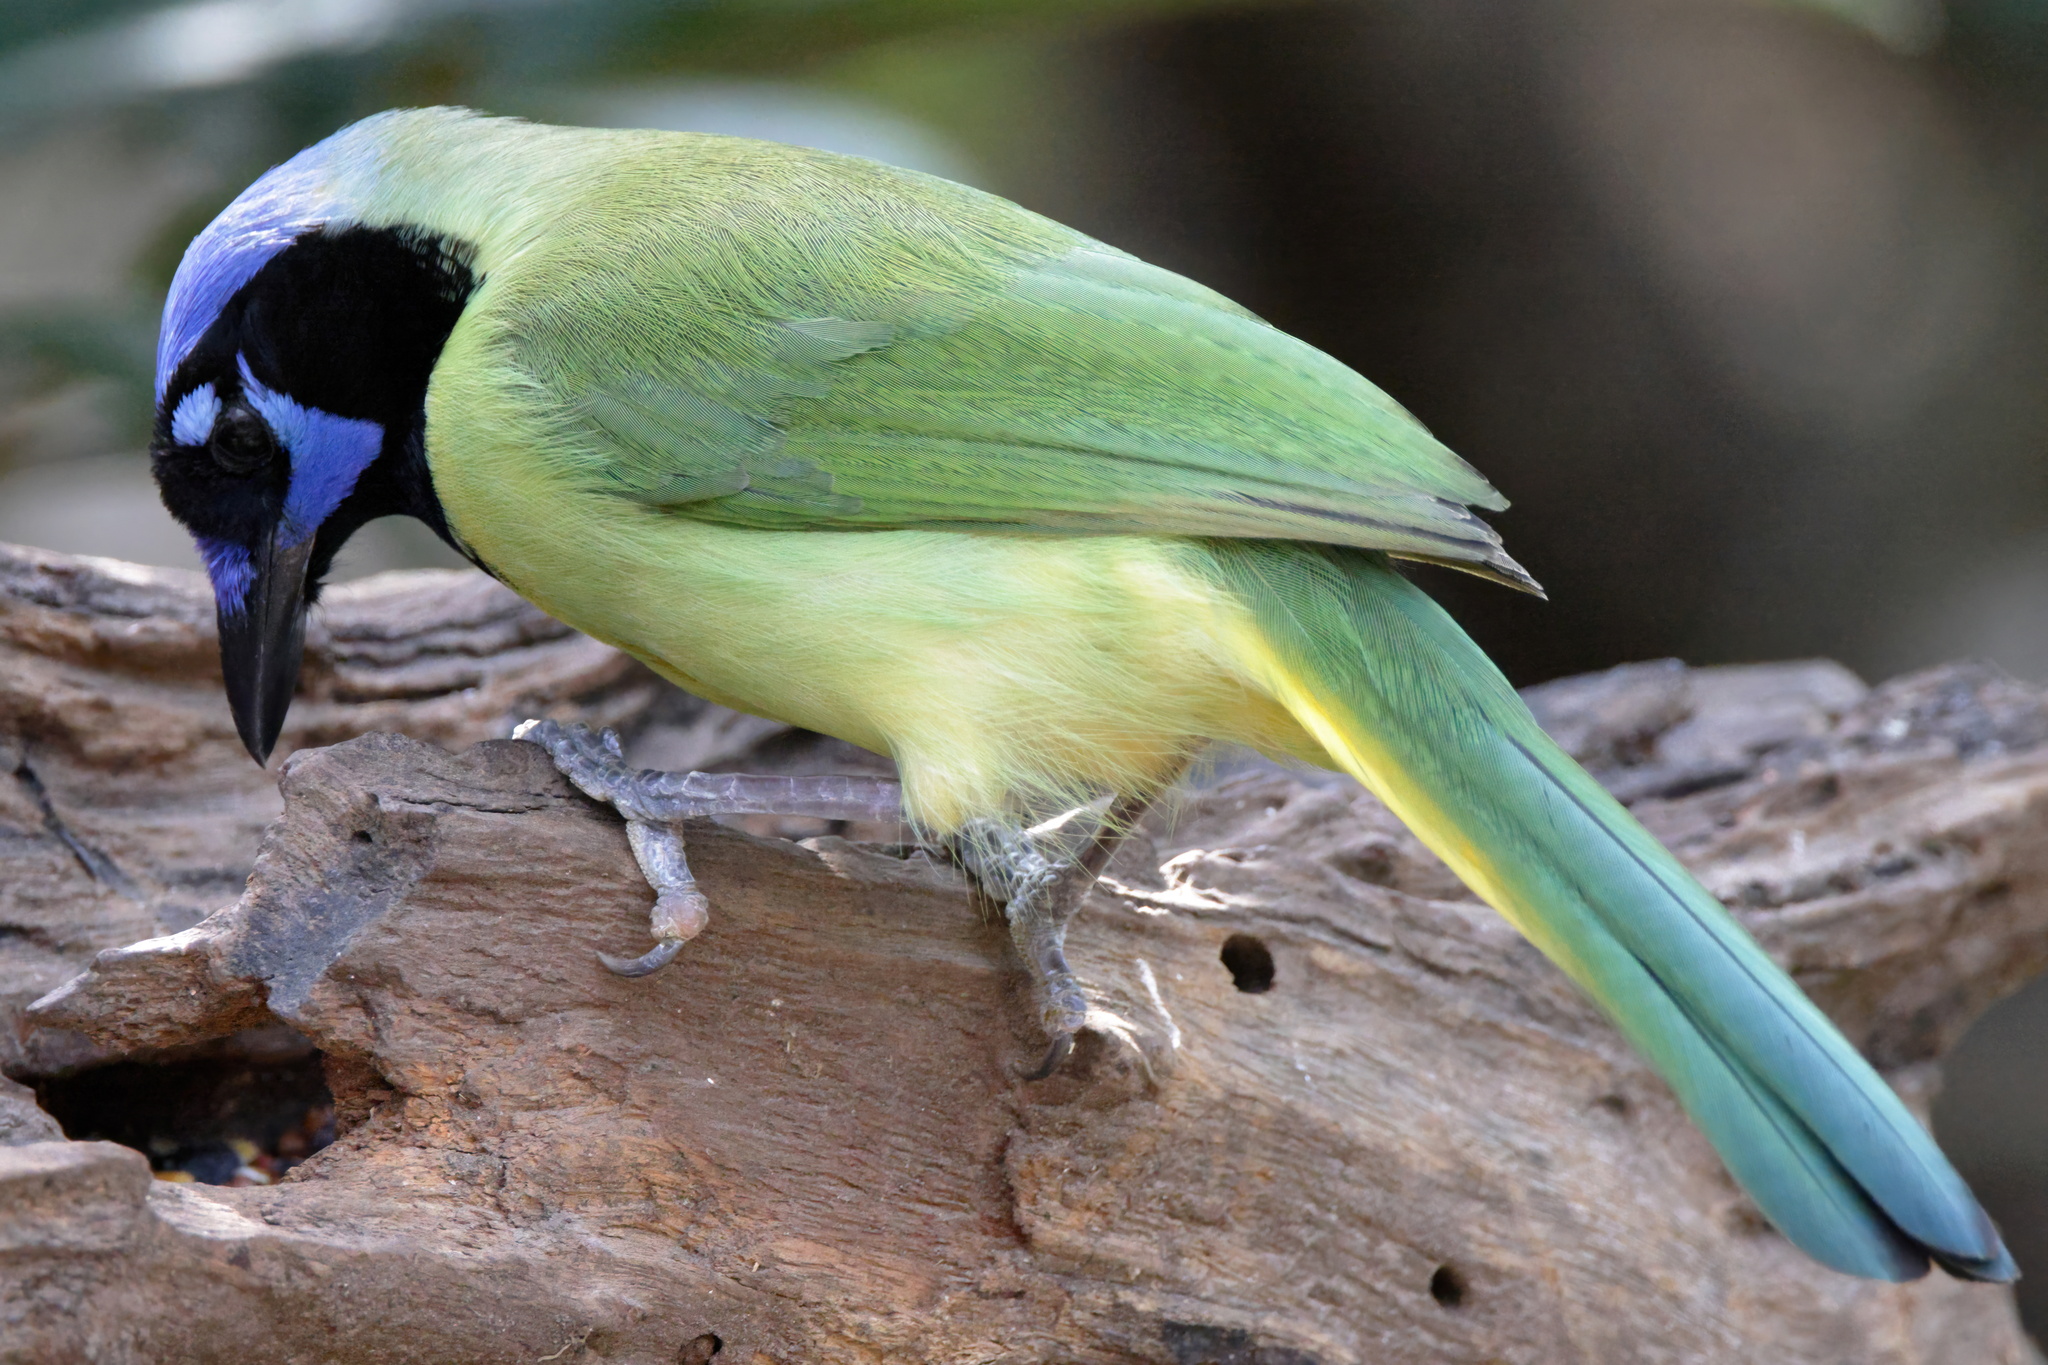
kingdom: Animalia
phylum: Chordata
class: Aves
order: Passeriformes
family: Corvidae
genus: Cyanocorax
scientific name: Cyanocorax yncas
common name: Green jay
